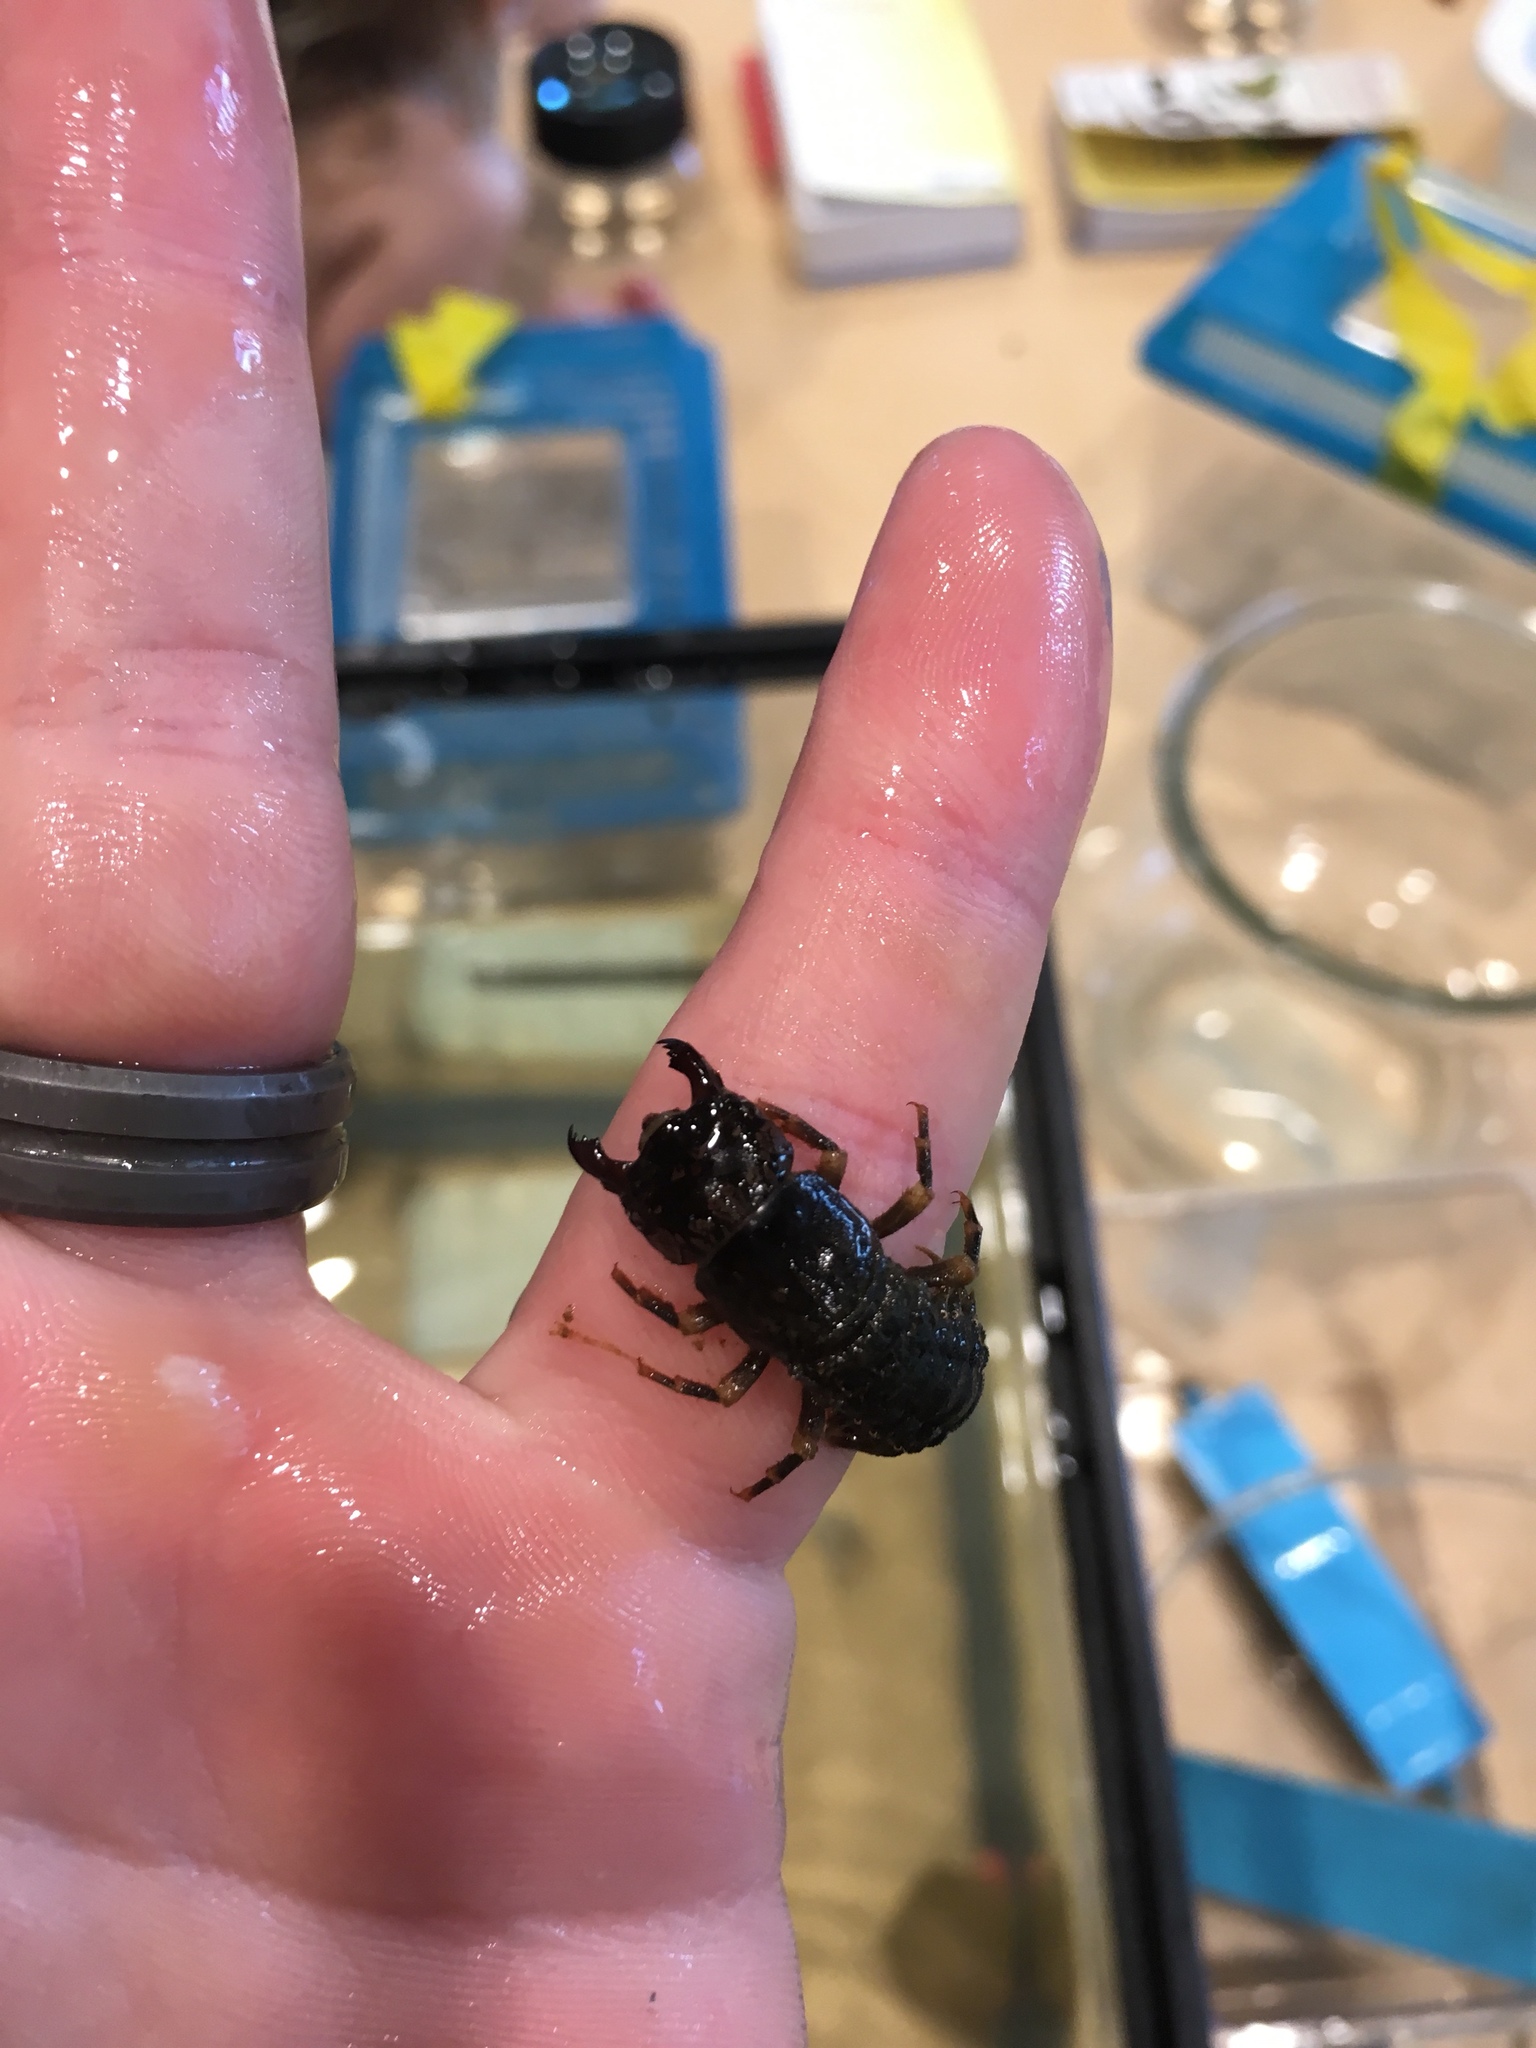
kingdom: Animalia
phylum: Arthropoda
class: Insecta
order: Megaloptera
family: Corydalidae
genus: Corydalus
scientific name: Corydalus cornutus
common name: Dobsonfly
